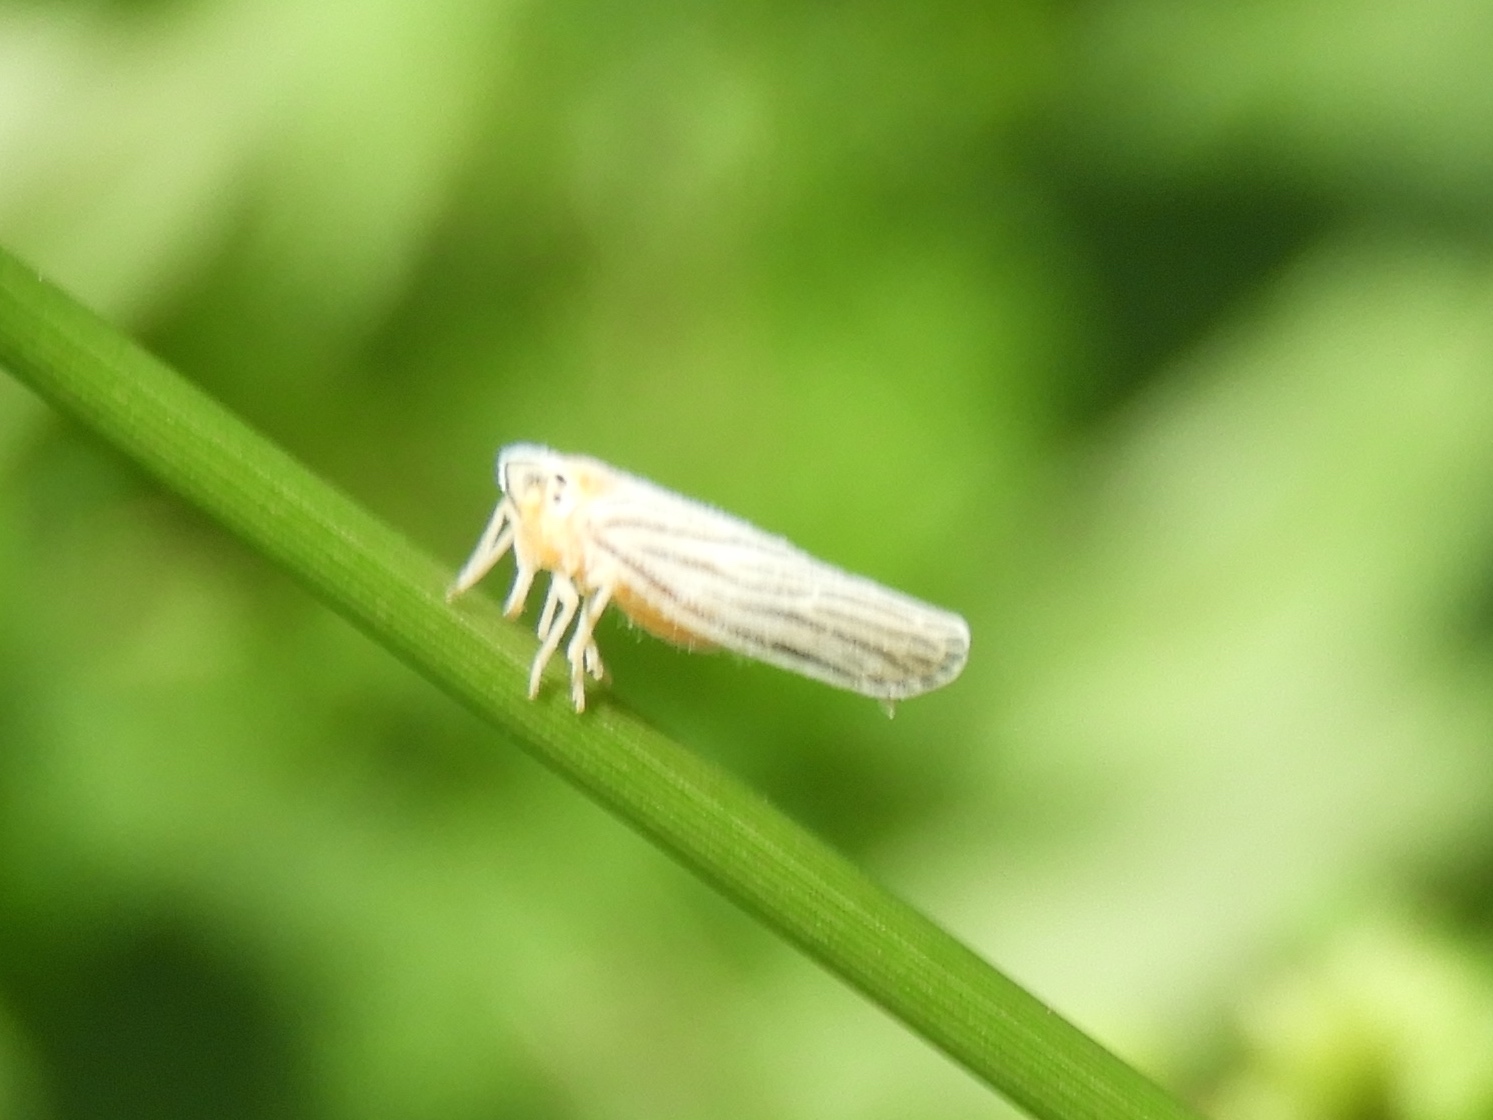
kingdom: Animalia
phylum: Arthropoda
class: Insecta
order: Hemiptera
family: Derbidae
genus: Persis
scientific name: Persis
